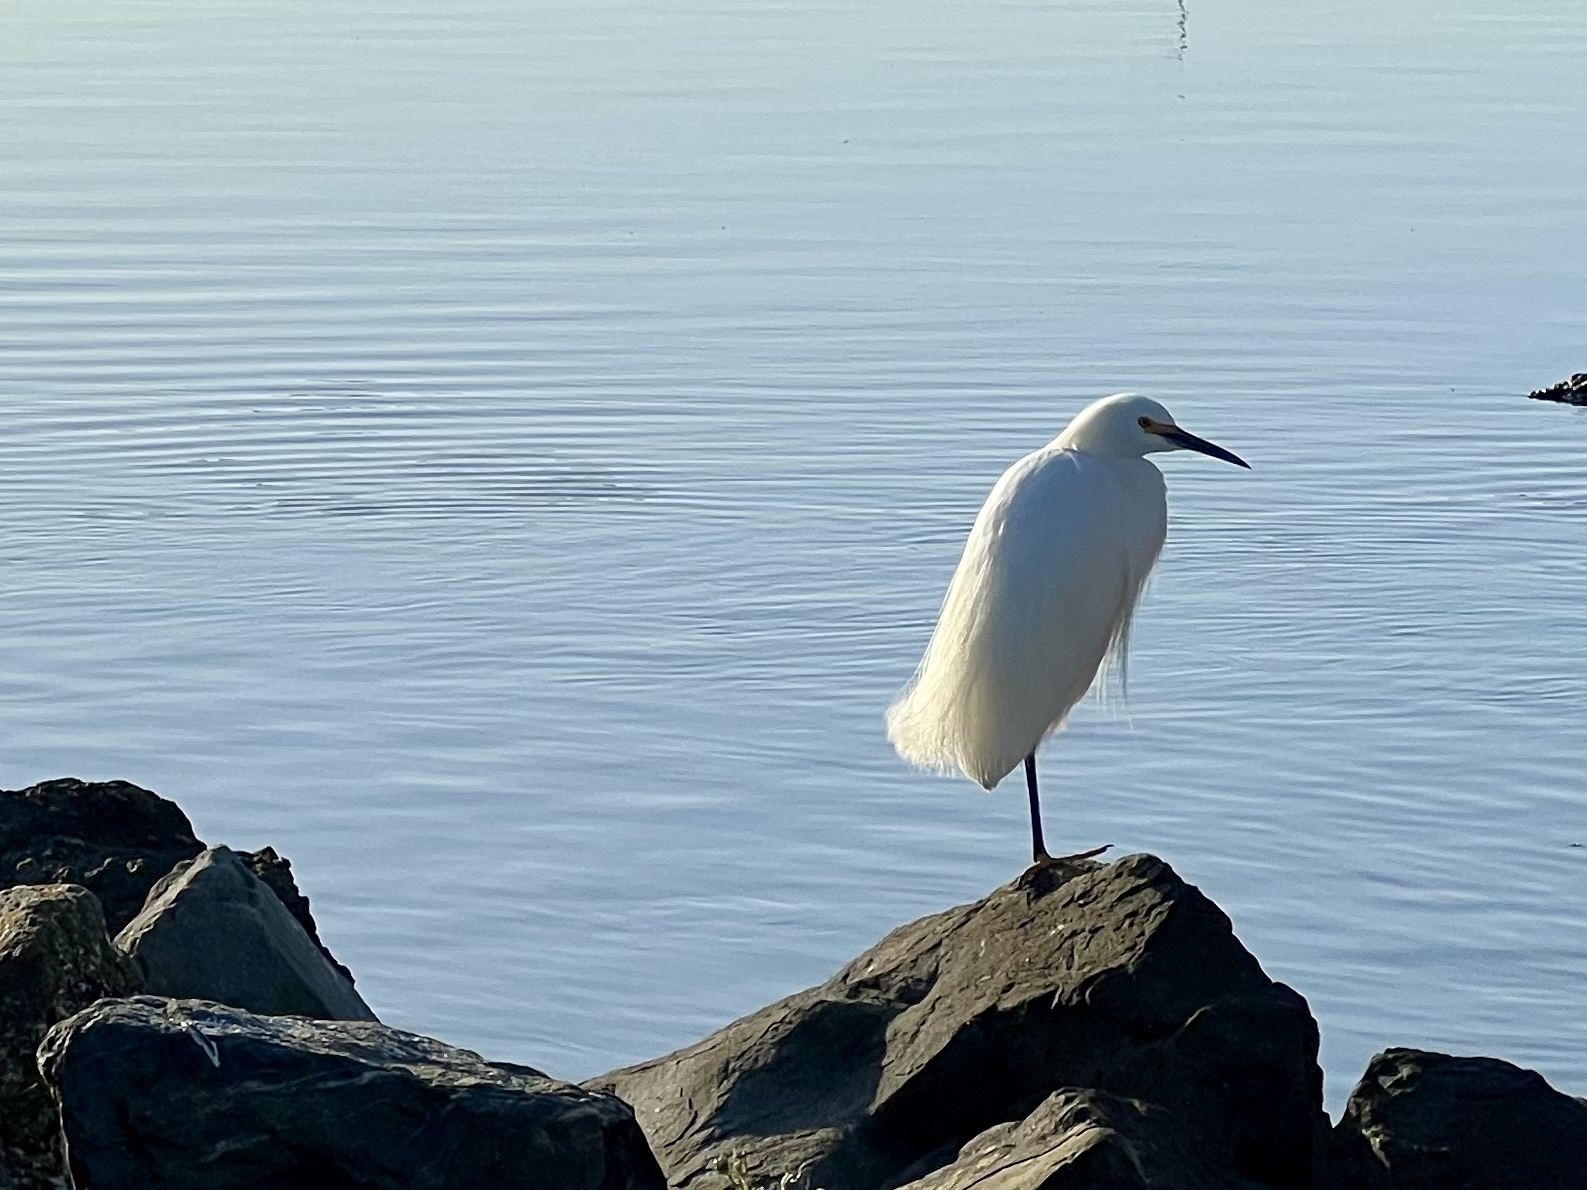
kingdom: Animalia
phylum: Chordata
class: Aves
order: Pelecaniformes
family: Ardeidae
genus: Egretta
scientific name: Egretta thula
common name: Snowy egret
